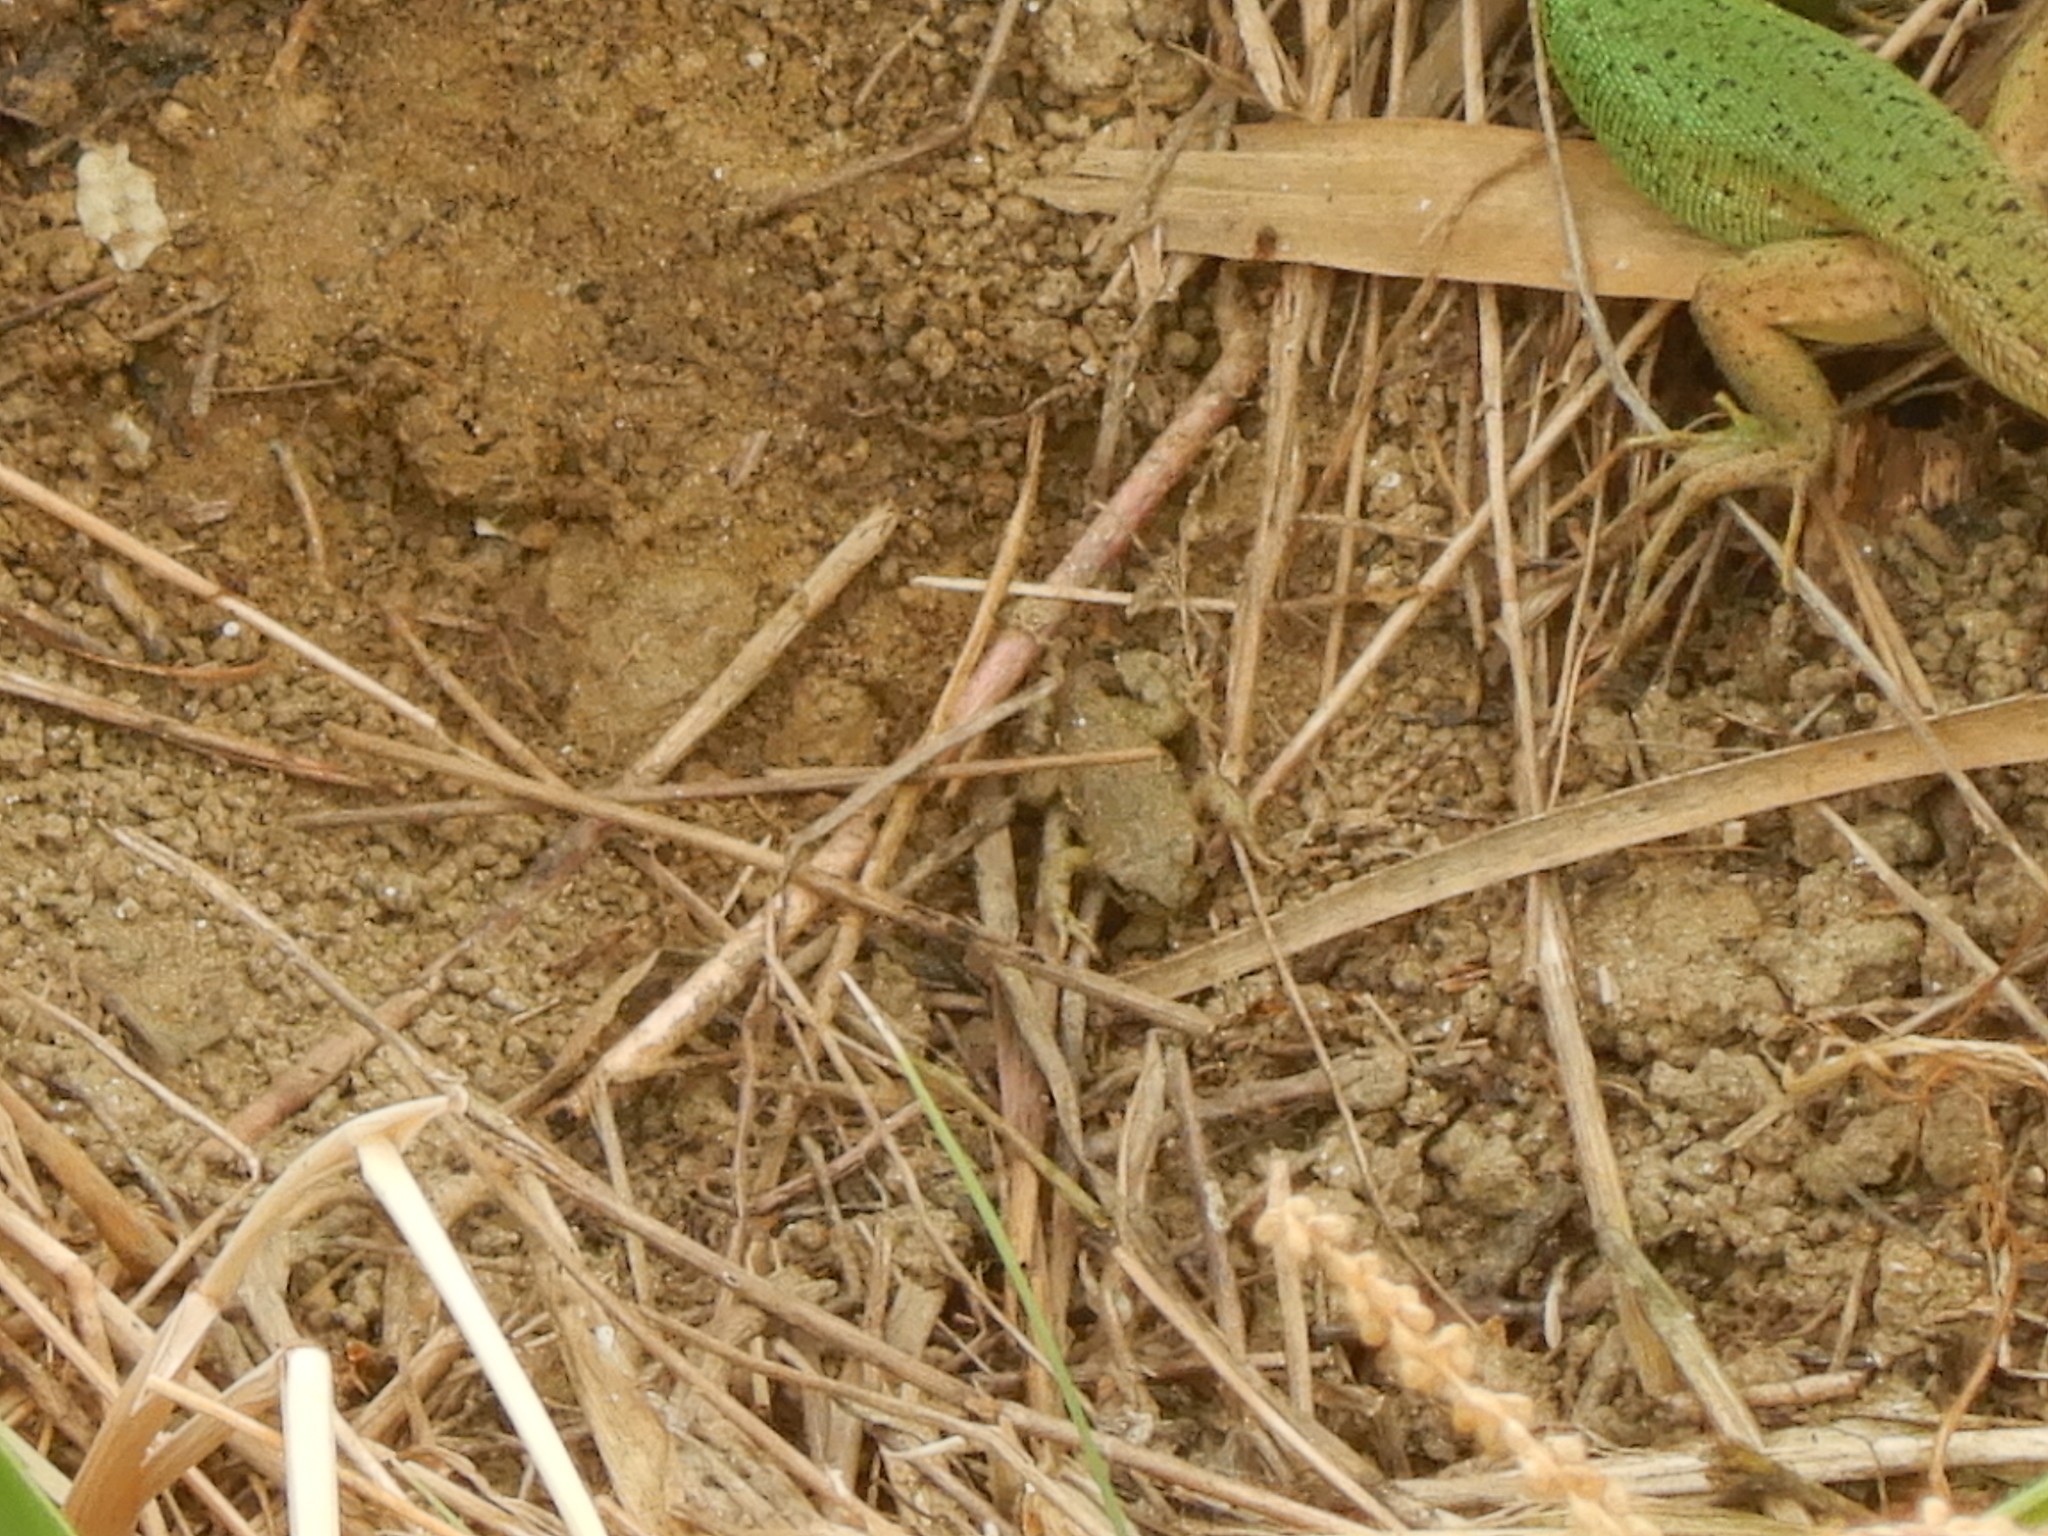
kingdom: Animalia
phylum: Chordata
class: Amphibia
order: Anura
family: Bufonidae
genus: Bufotes
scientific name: Bufotes viridis
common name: European green toad
